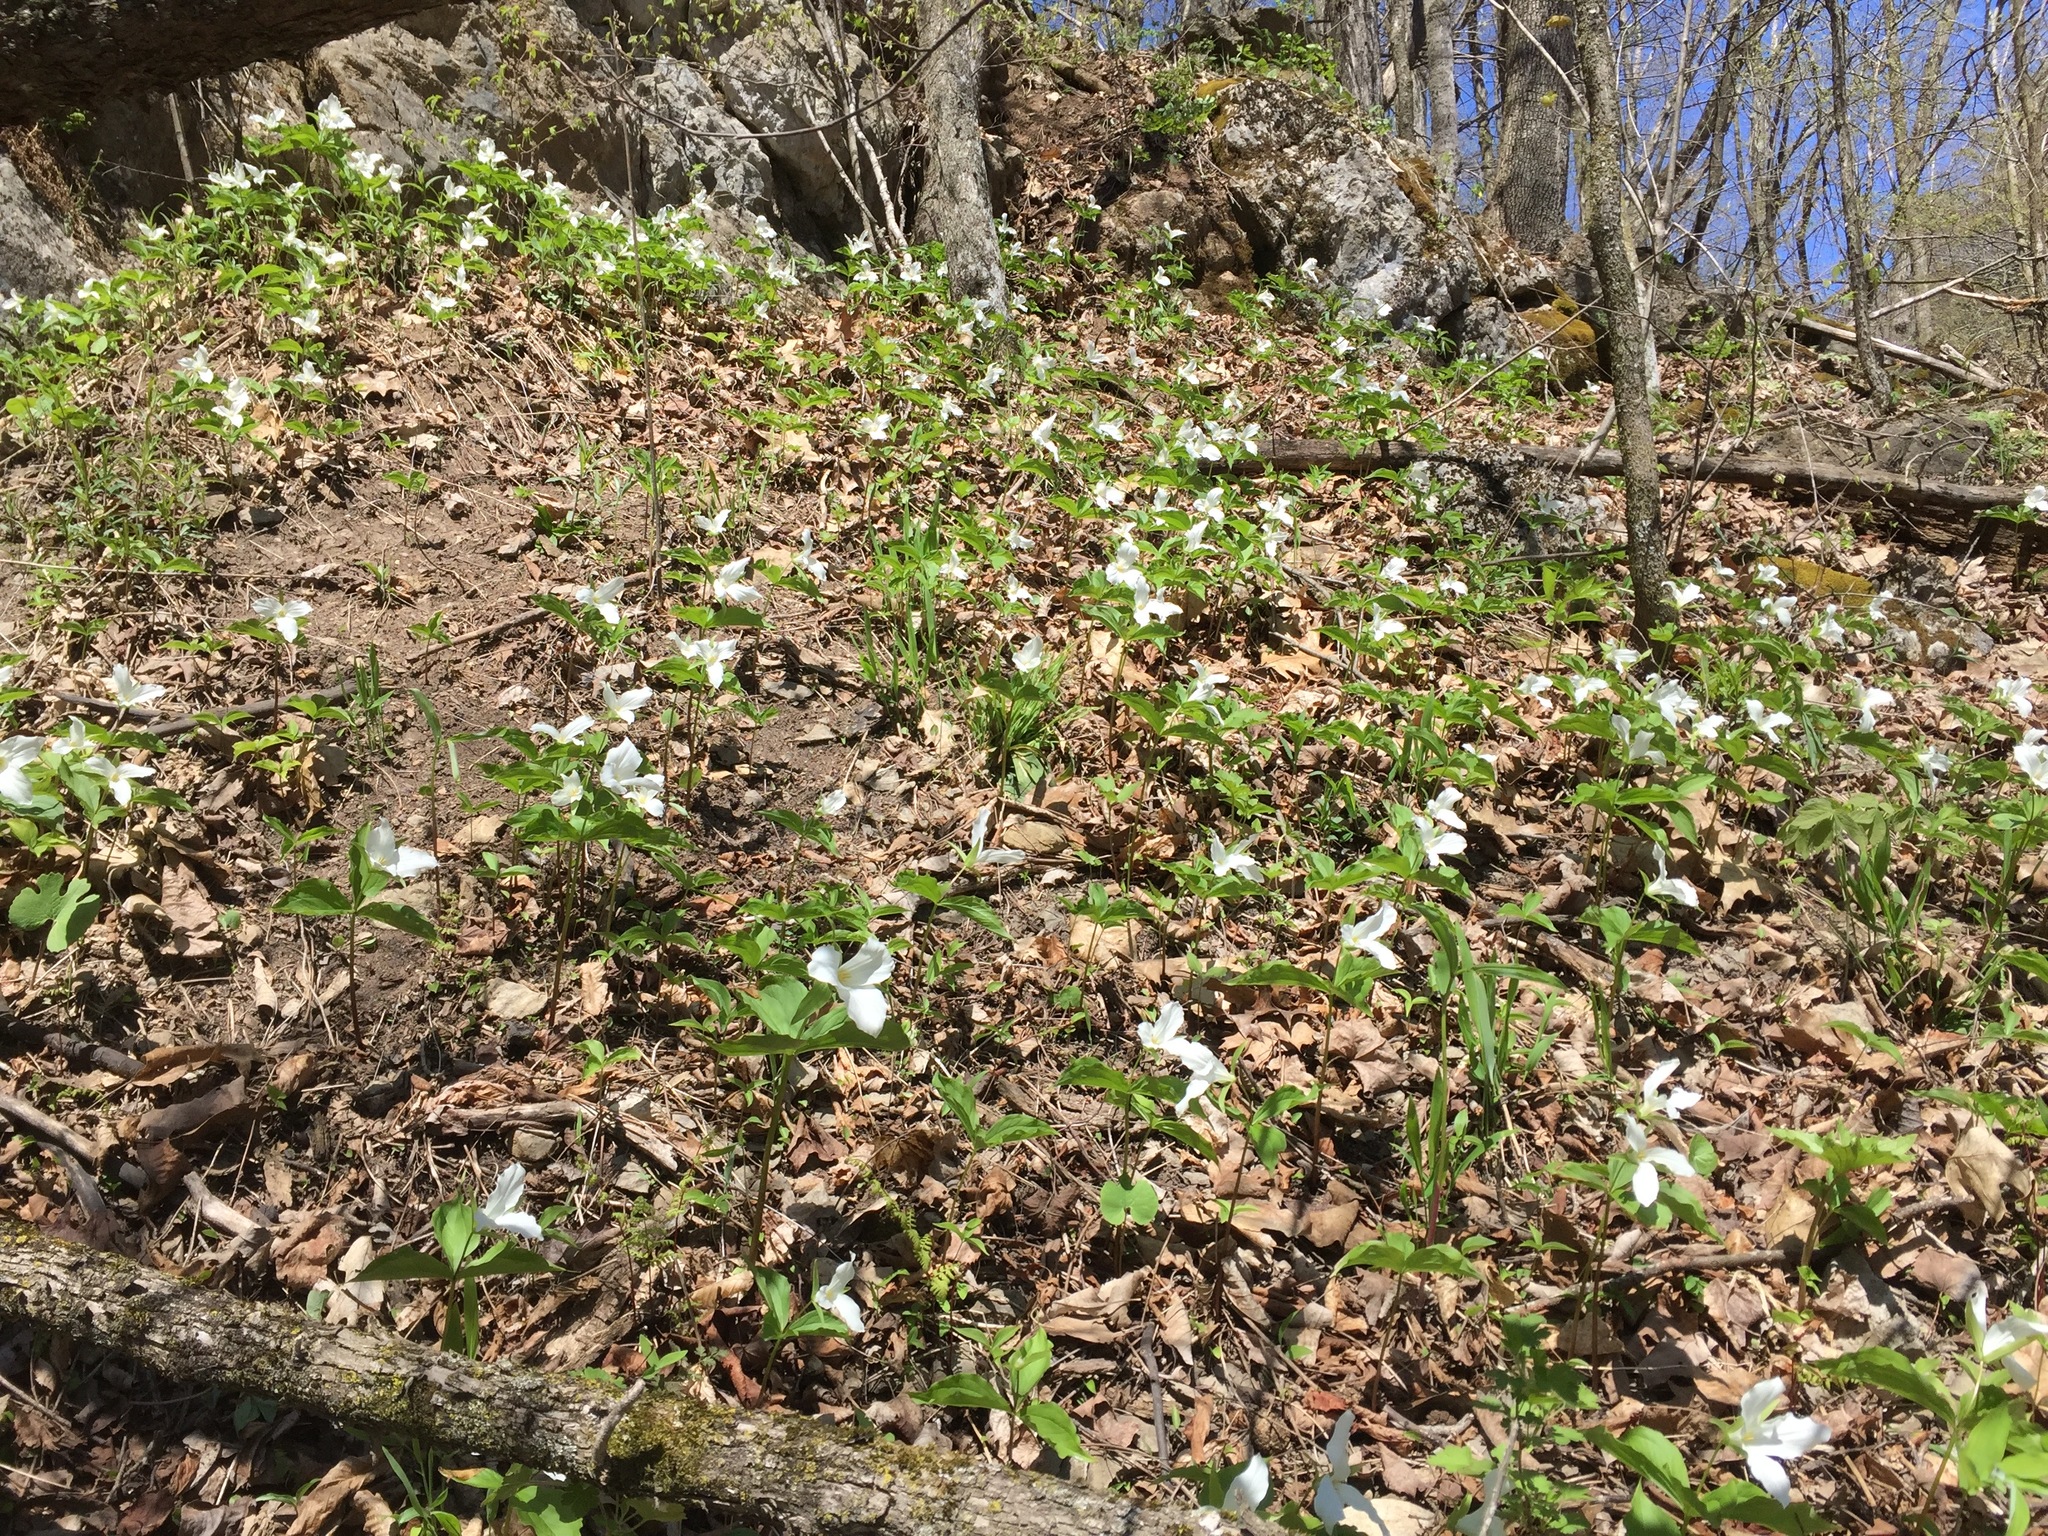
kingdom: Plantae
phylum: Tracheophyta
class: Liliopsida
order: Liliales
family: Melanthiaceae
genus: Trillium
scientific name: Trillium grandiflorum
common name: Great white trillium
